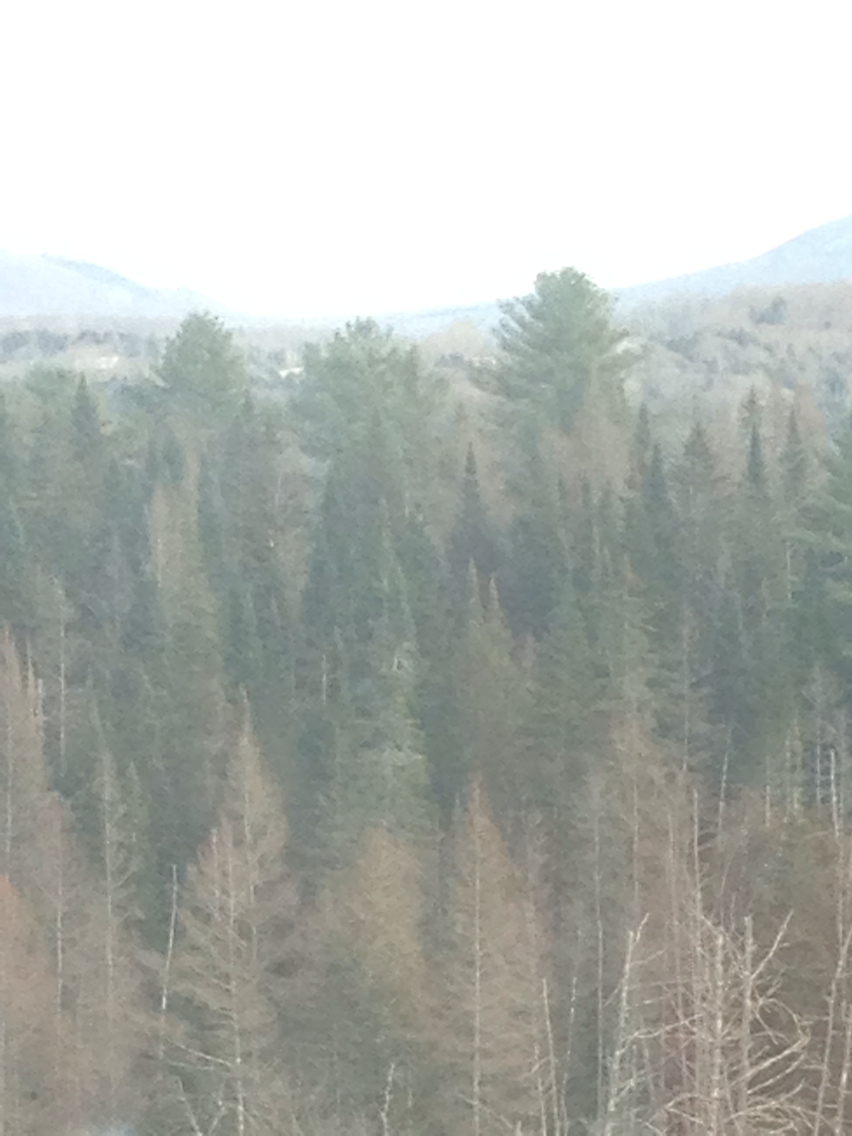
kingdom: Plantae
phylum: Tracheophyta
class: Pinopsida
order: Pinales
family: Pinaceae
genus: Pinus
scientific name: Pinus strobus
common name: Weymouth pine
